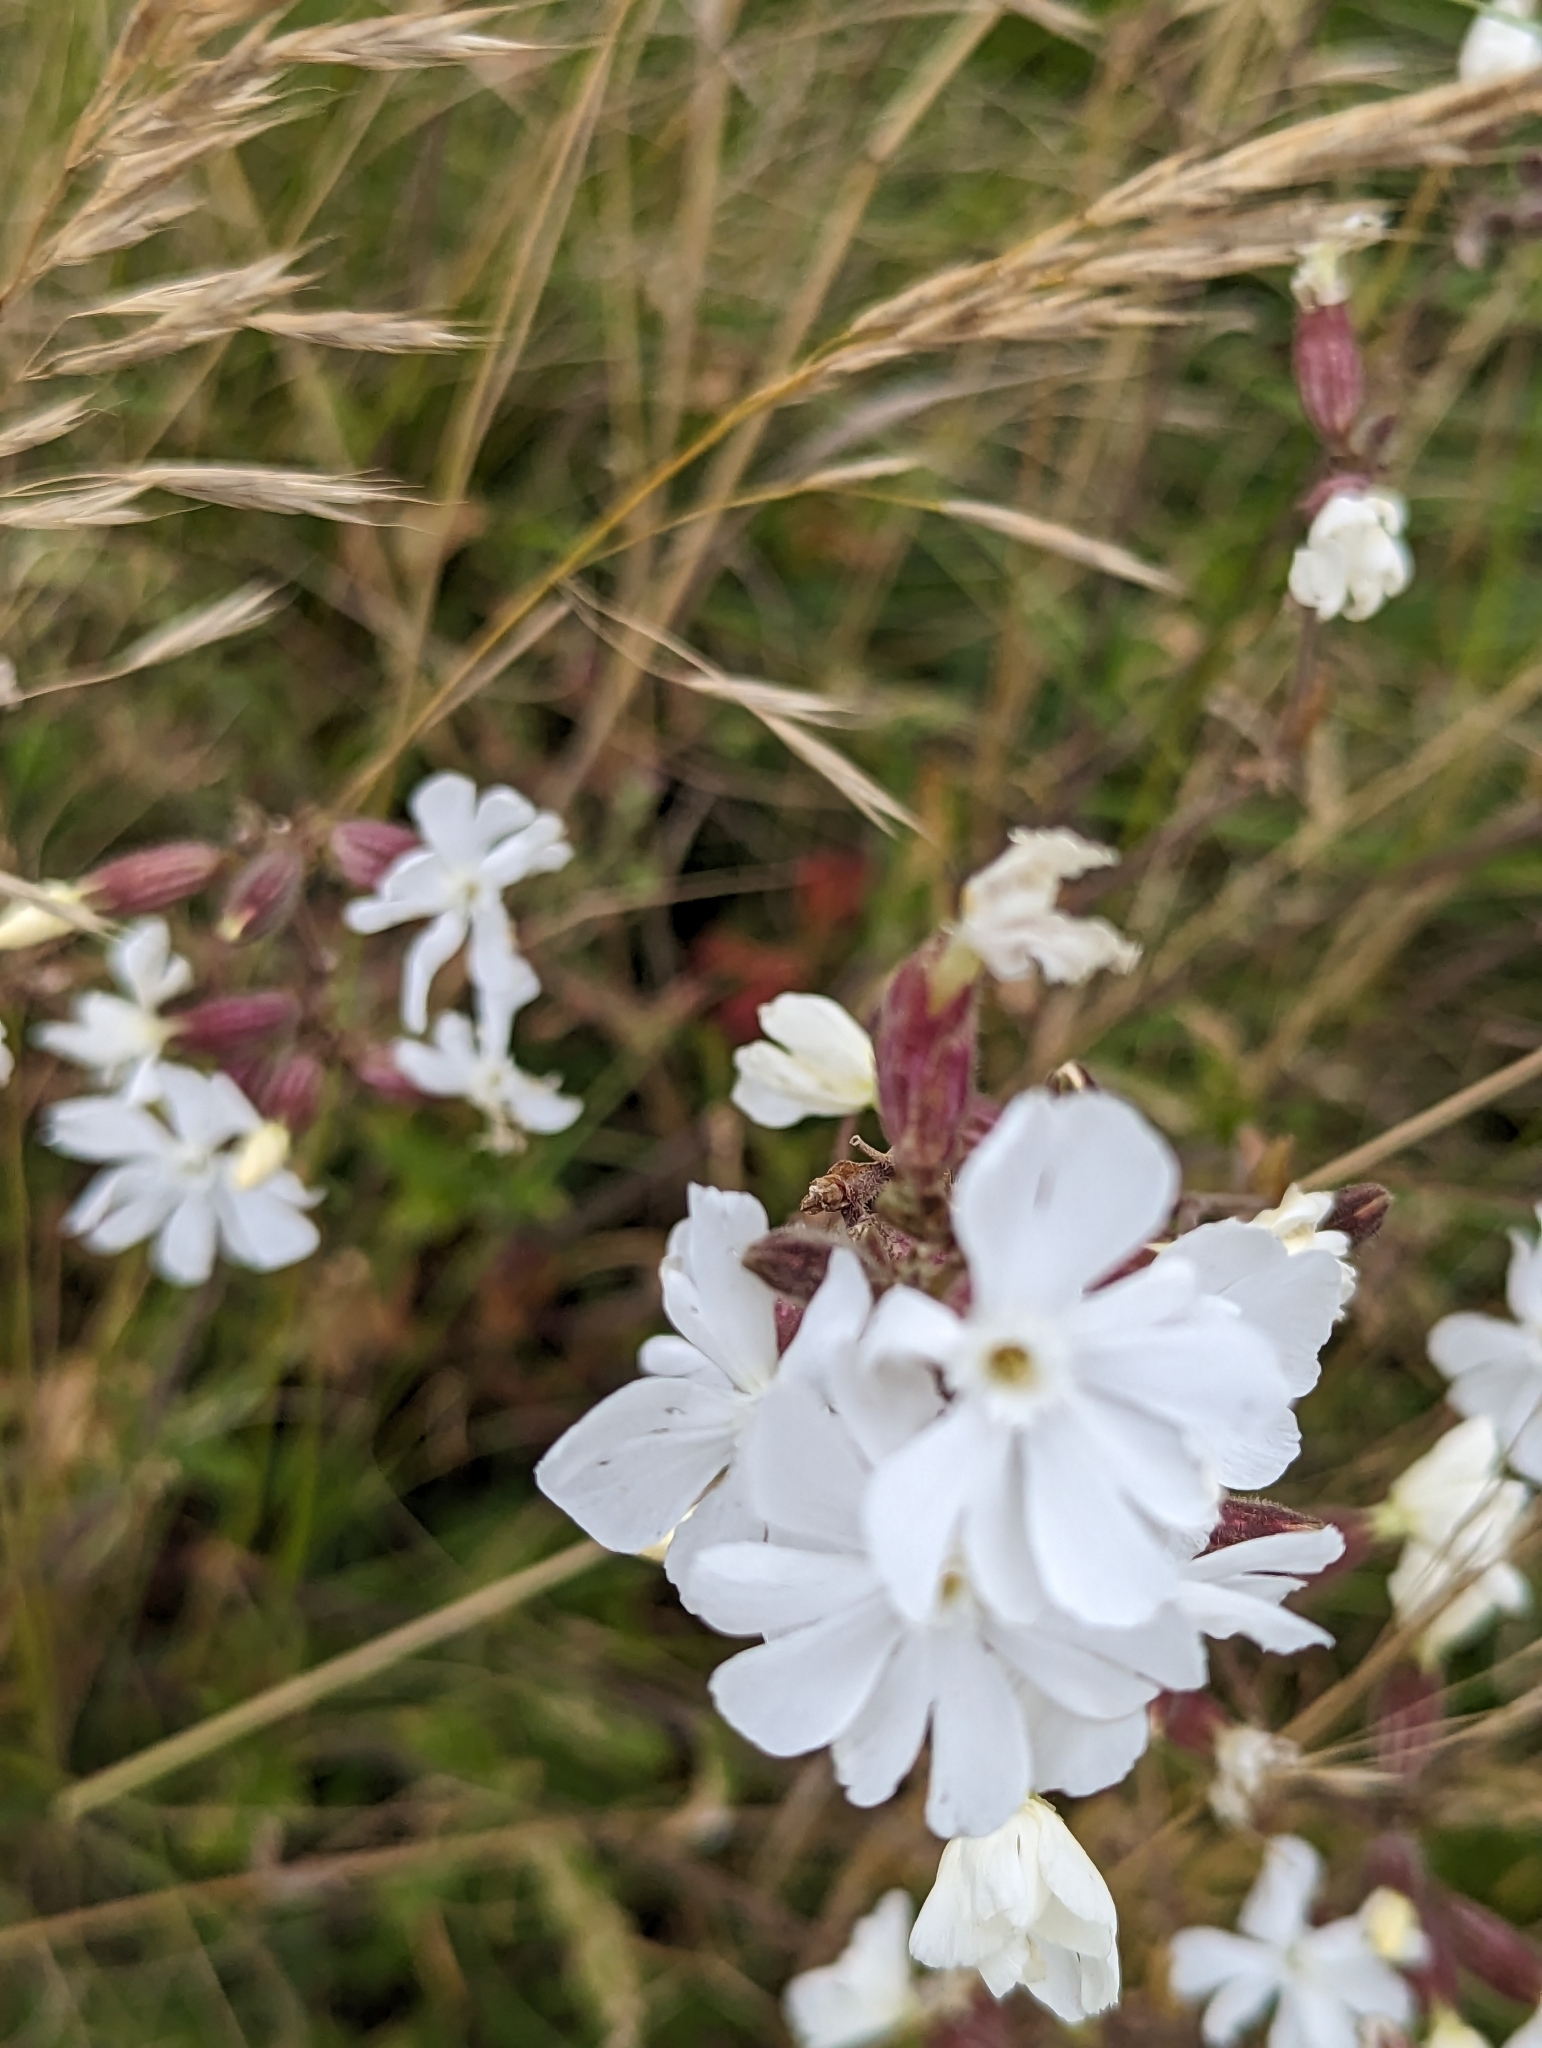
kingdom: Plantae
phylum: Tracheophyta
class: Magnoliopsida
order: Caryophyllales
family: Caryophyllaceae
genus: Silene
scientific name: Silene latifolia
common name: White campion
